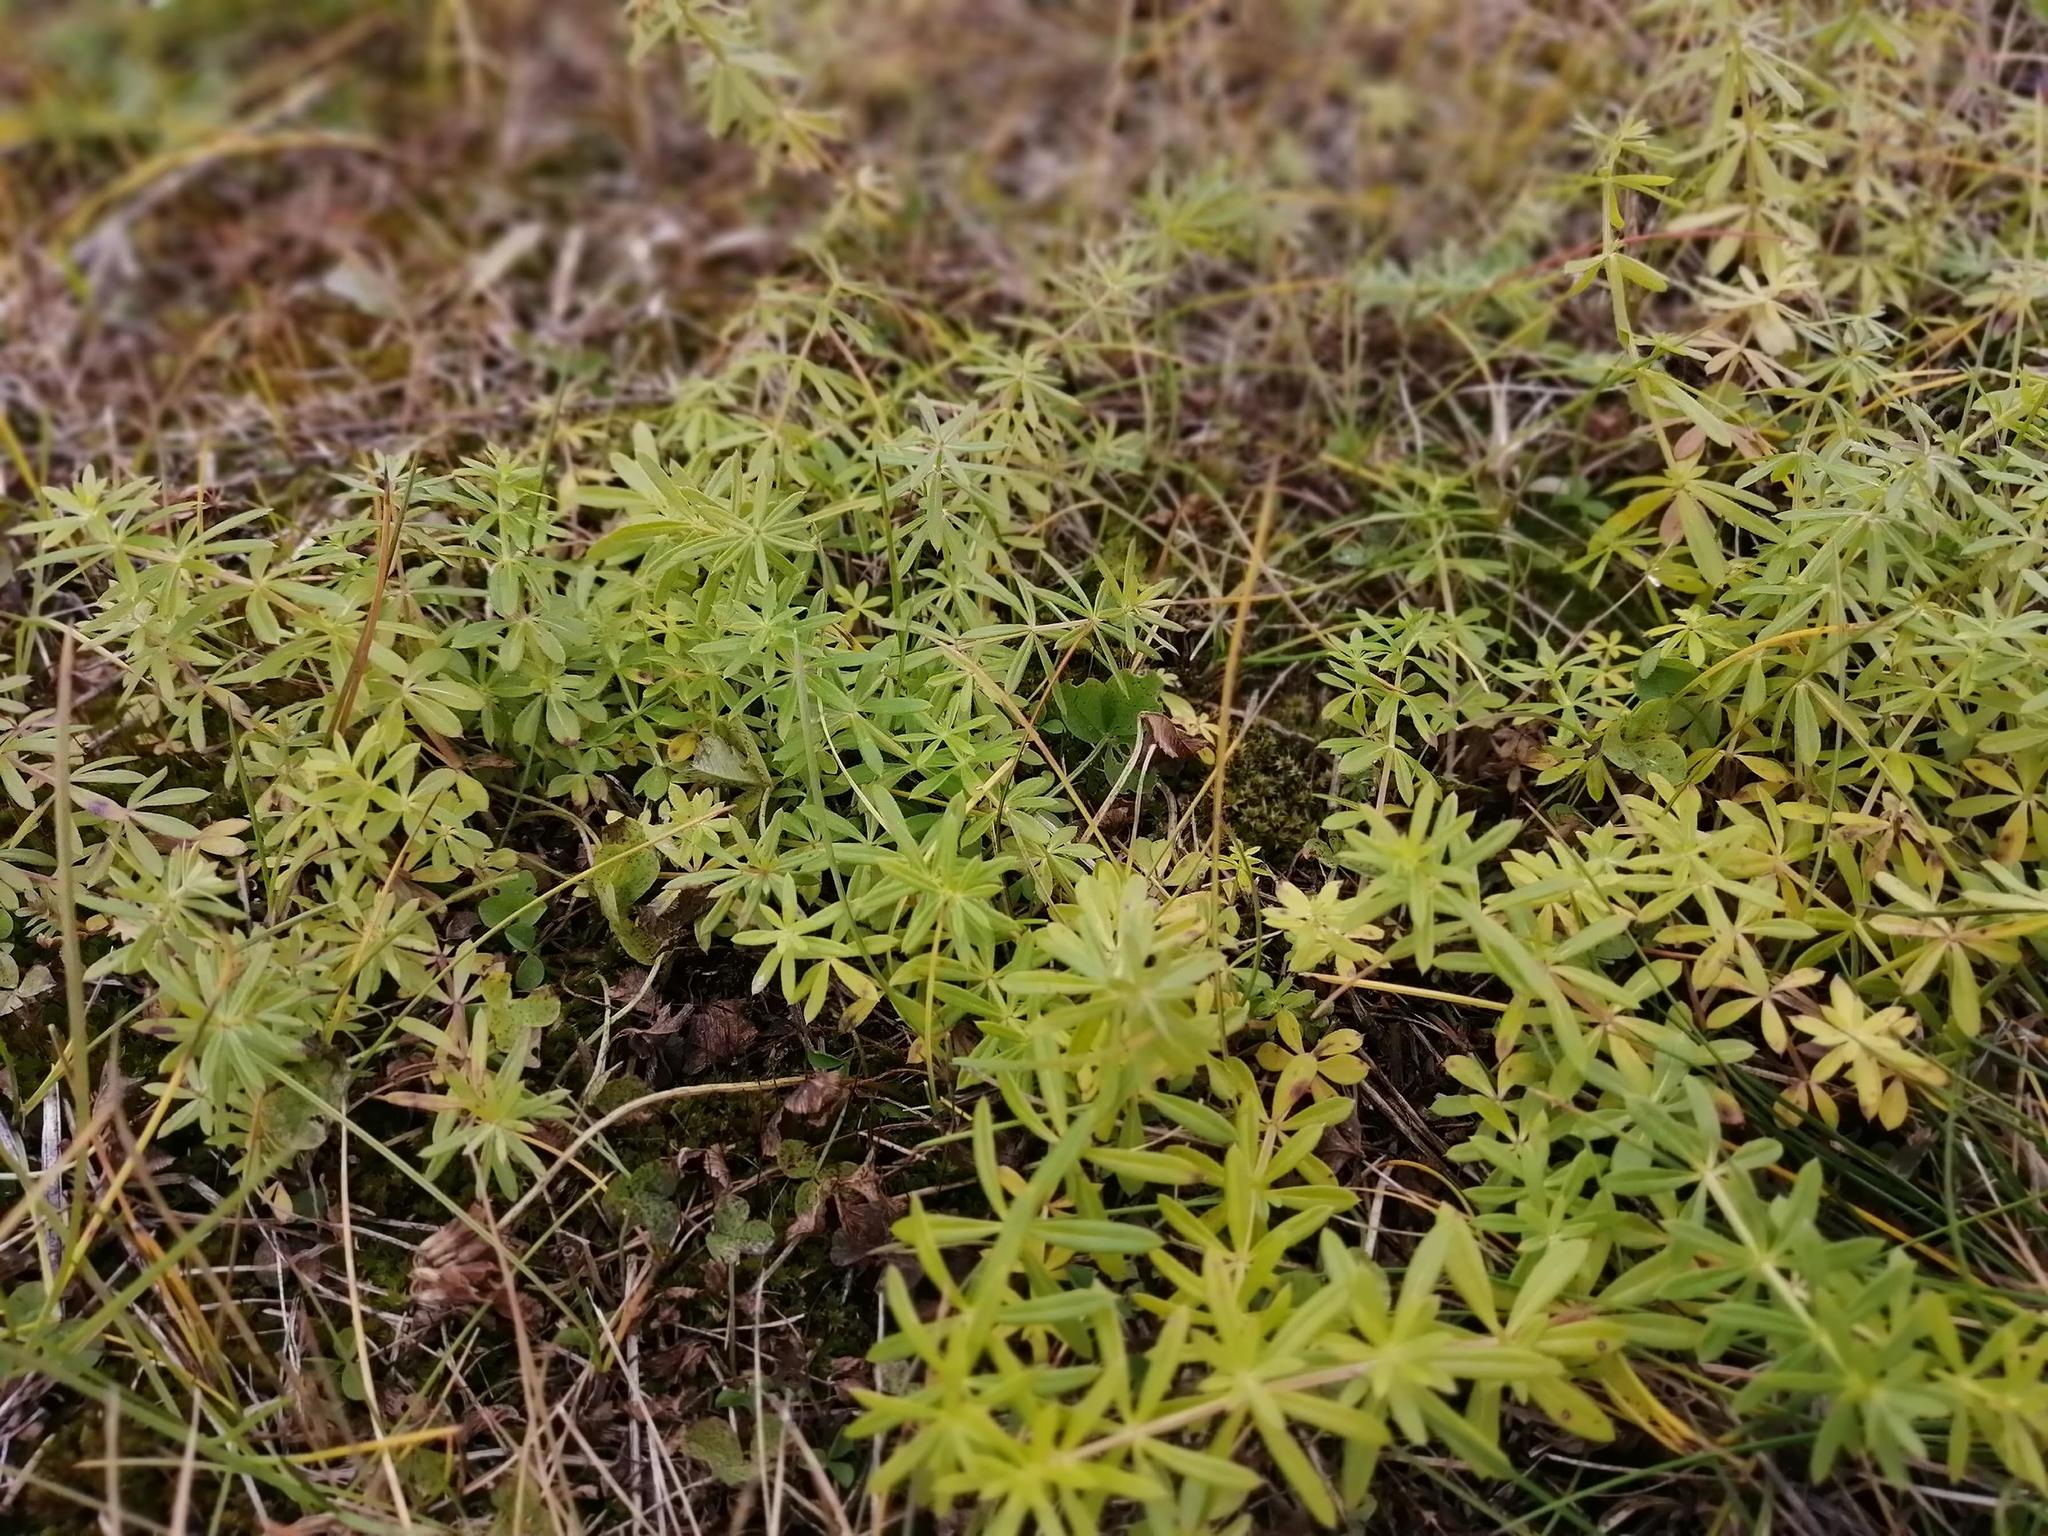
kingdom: Plantae
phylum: Tracheophyta
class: Magnoliopsida
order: Gentianales
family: Rubiaceae
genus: Galium
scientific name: Galium mollugo
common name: Hedge bedstraw
